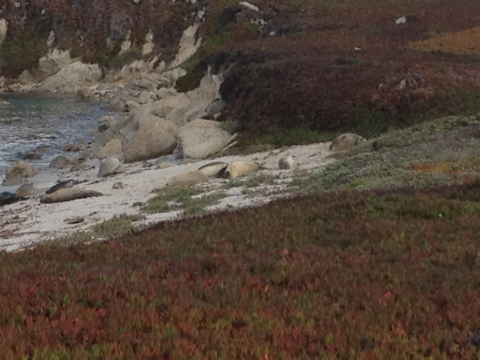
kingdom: Animalia
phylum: Chordata
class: Mammalia
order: Carnivora
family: Phocidae
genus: Mirounga
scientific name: Mirounga angustirostris
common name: Northern elephant seal
